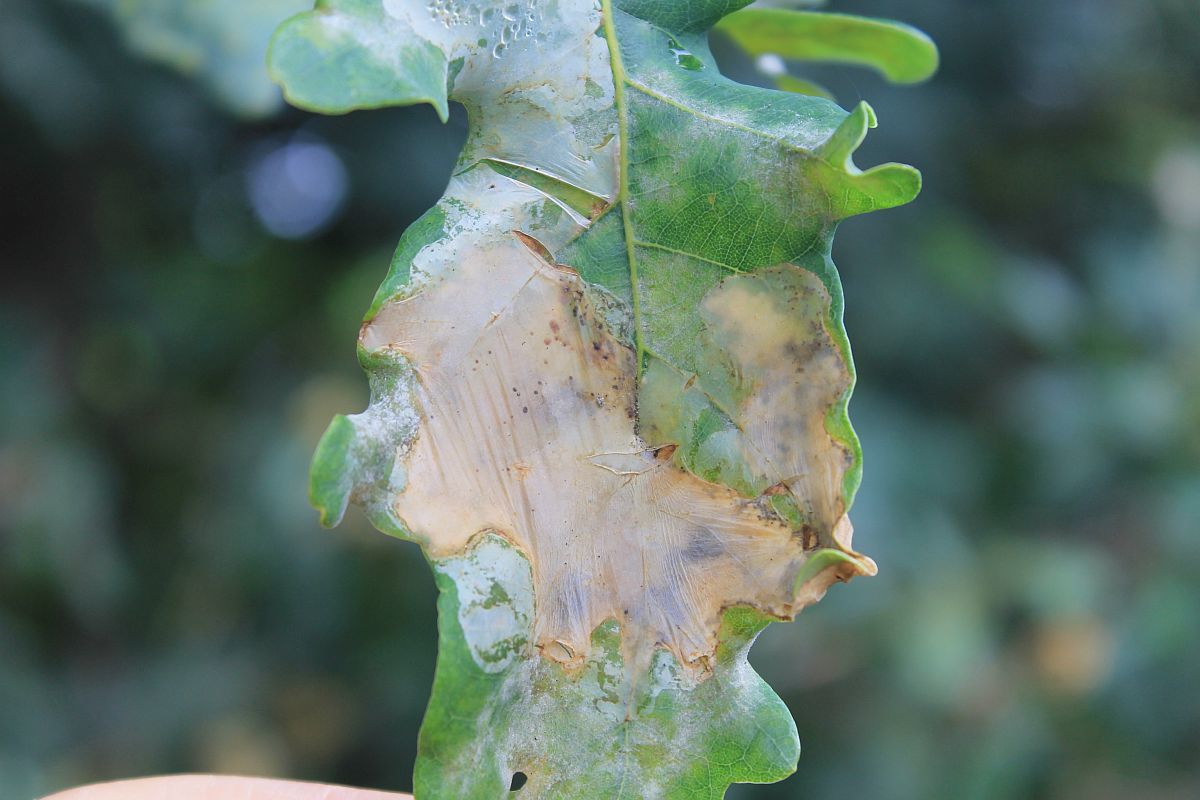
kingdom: Animalia
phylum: Arthropoda
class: Insecta
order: Lepidoptera
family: Gracillariidae
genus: Acrocercops
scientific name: Acrocercops brongniardella
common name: Brown oak slender
